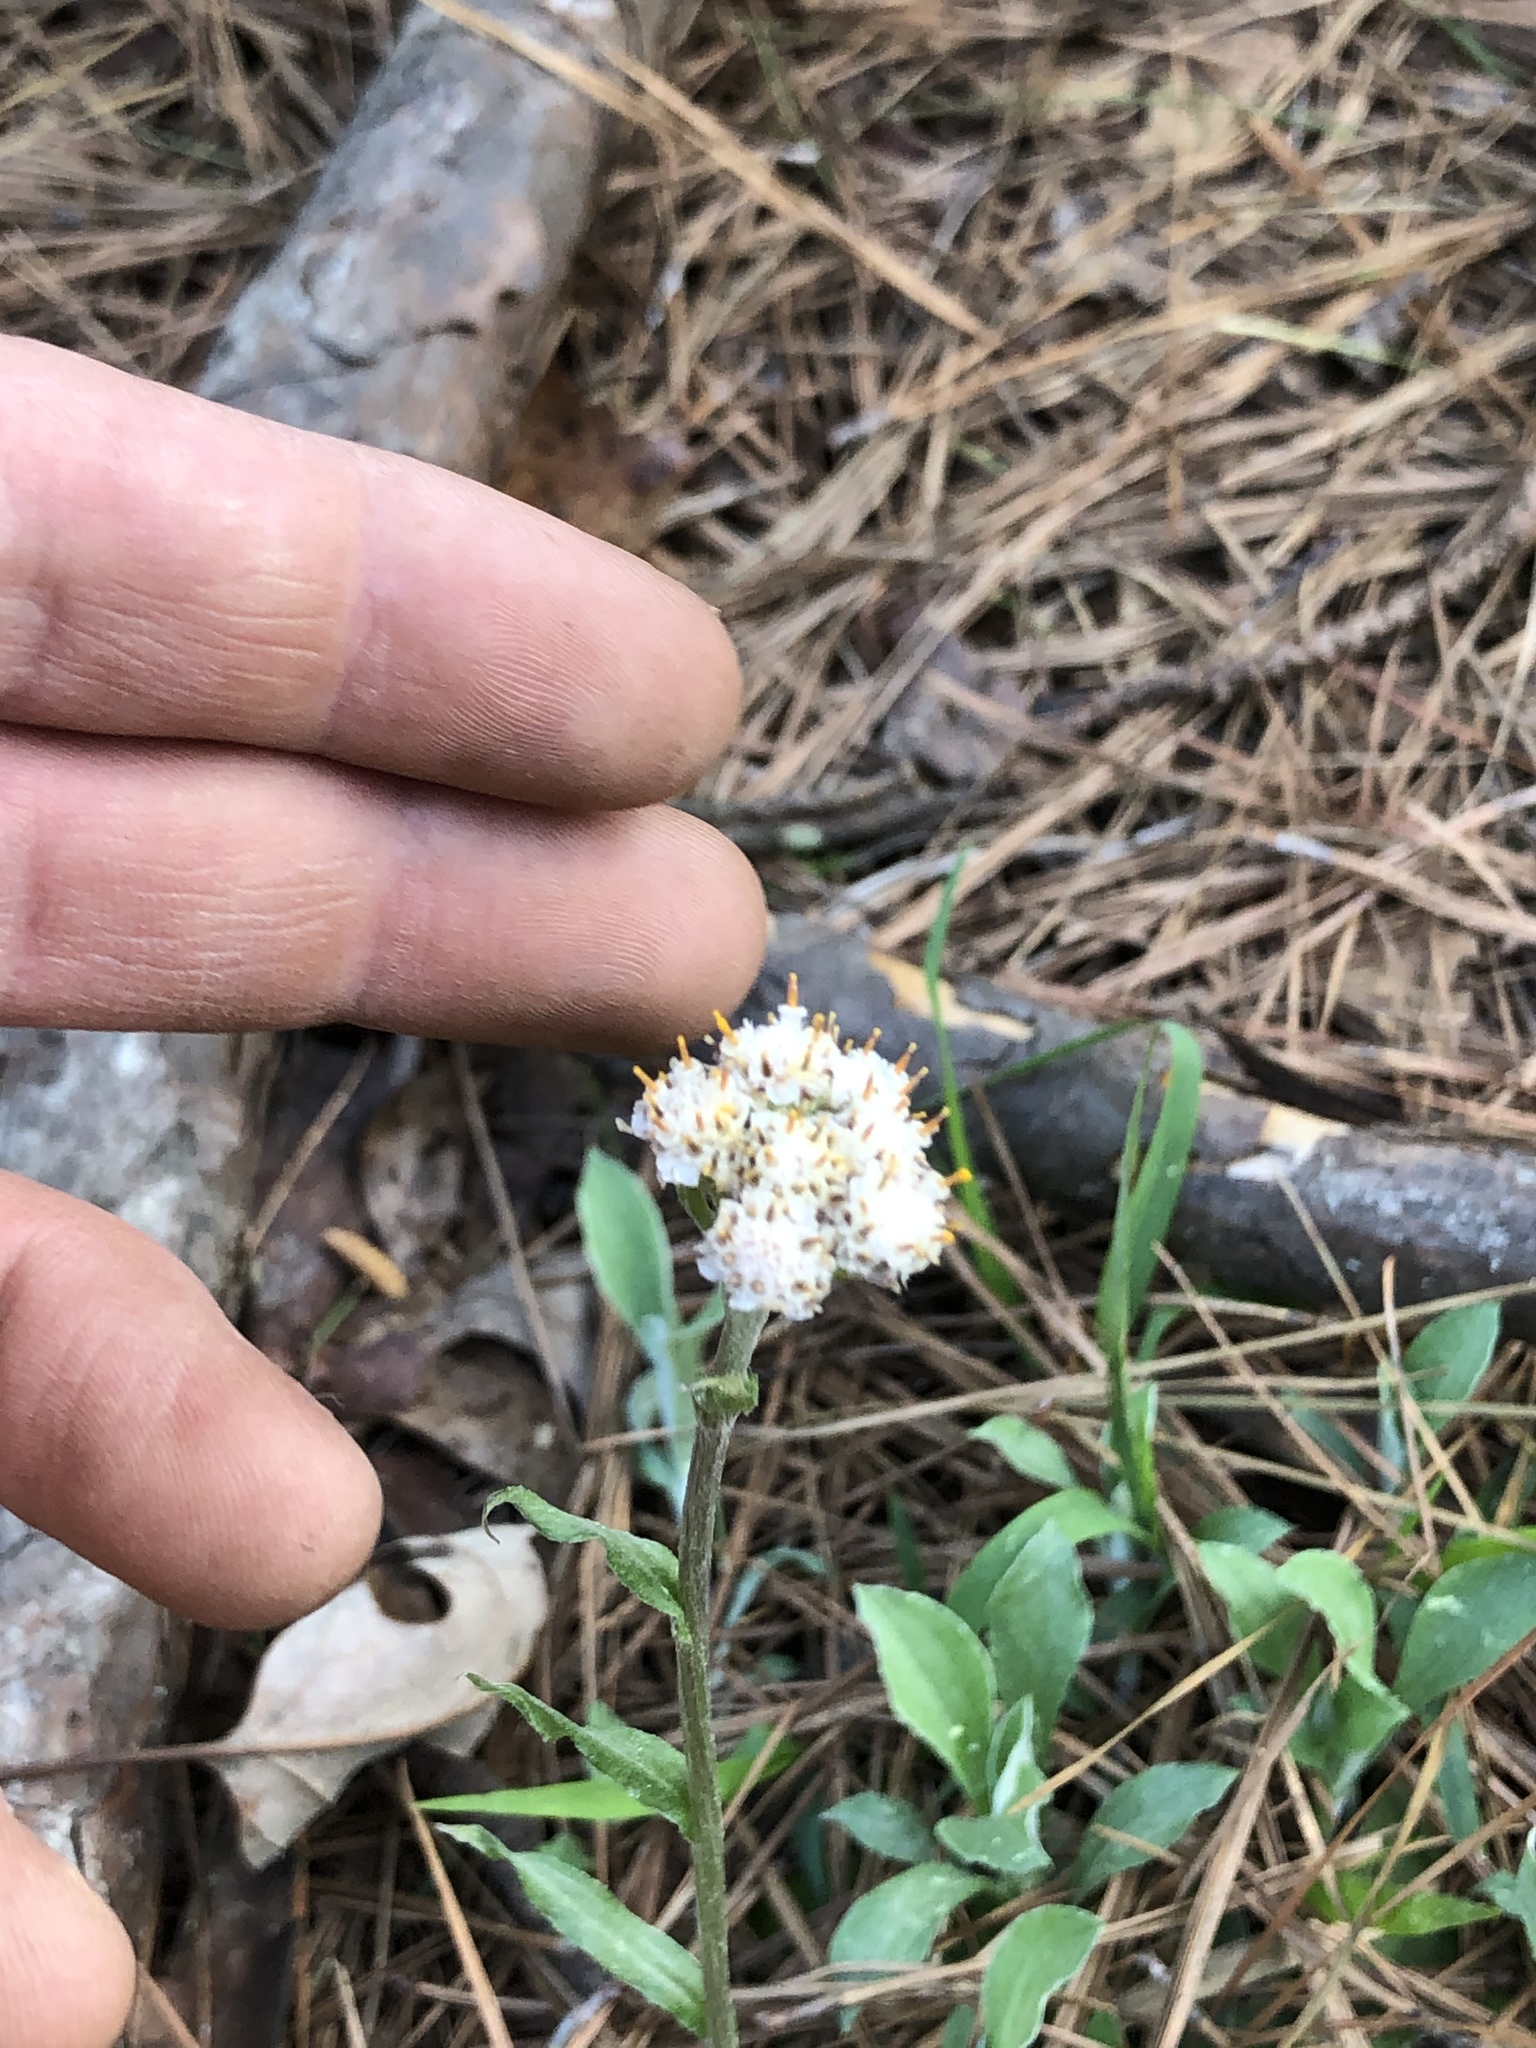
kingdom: Plantae
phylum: Tracheophyta
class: Magnoliopsida
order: Asterales
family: Asteraceae
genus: Antennaria
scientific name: Antennaria plantaginifolia
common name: Plantain-leaved pussytoes
